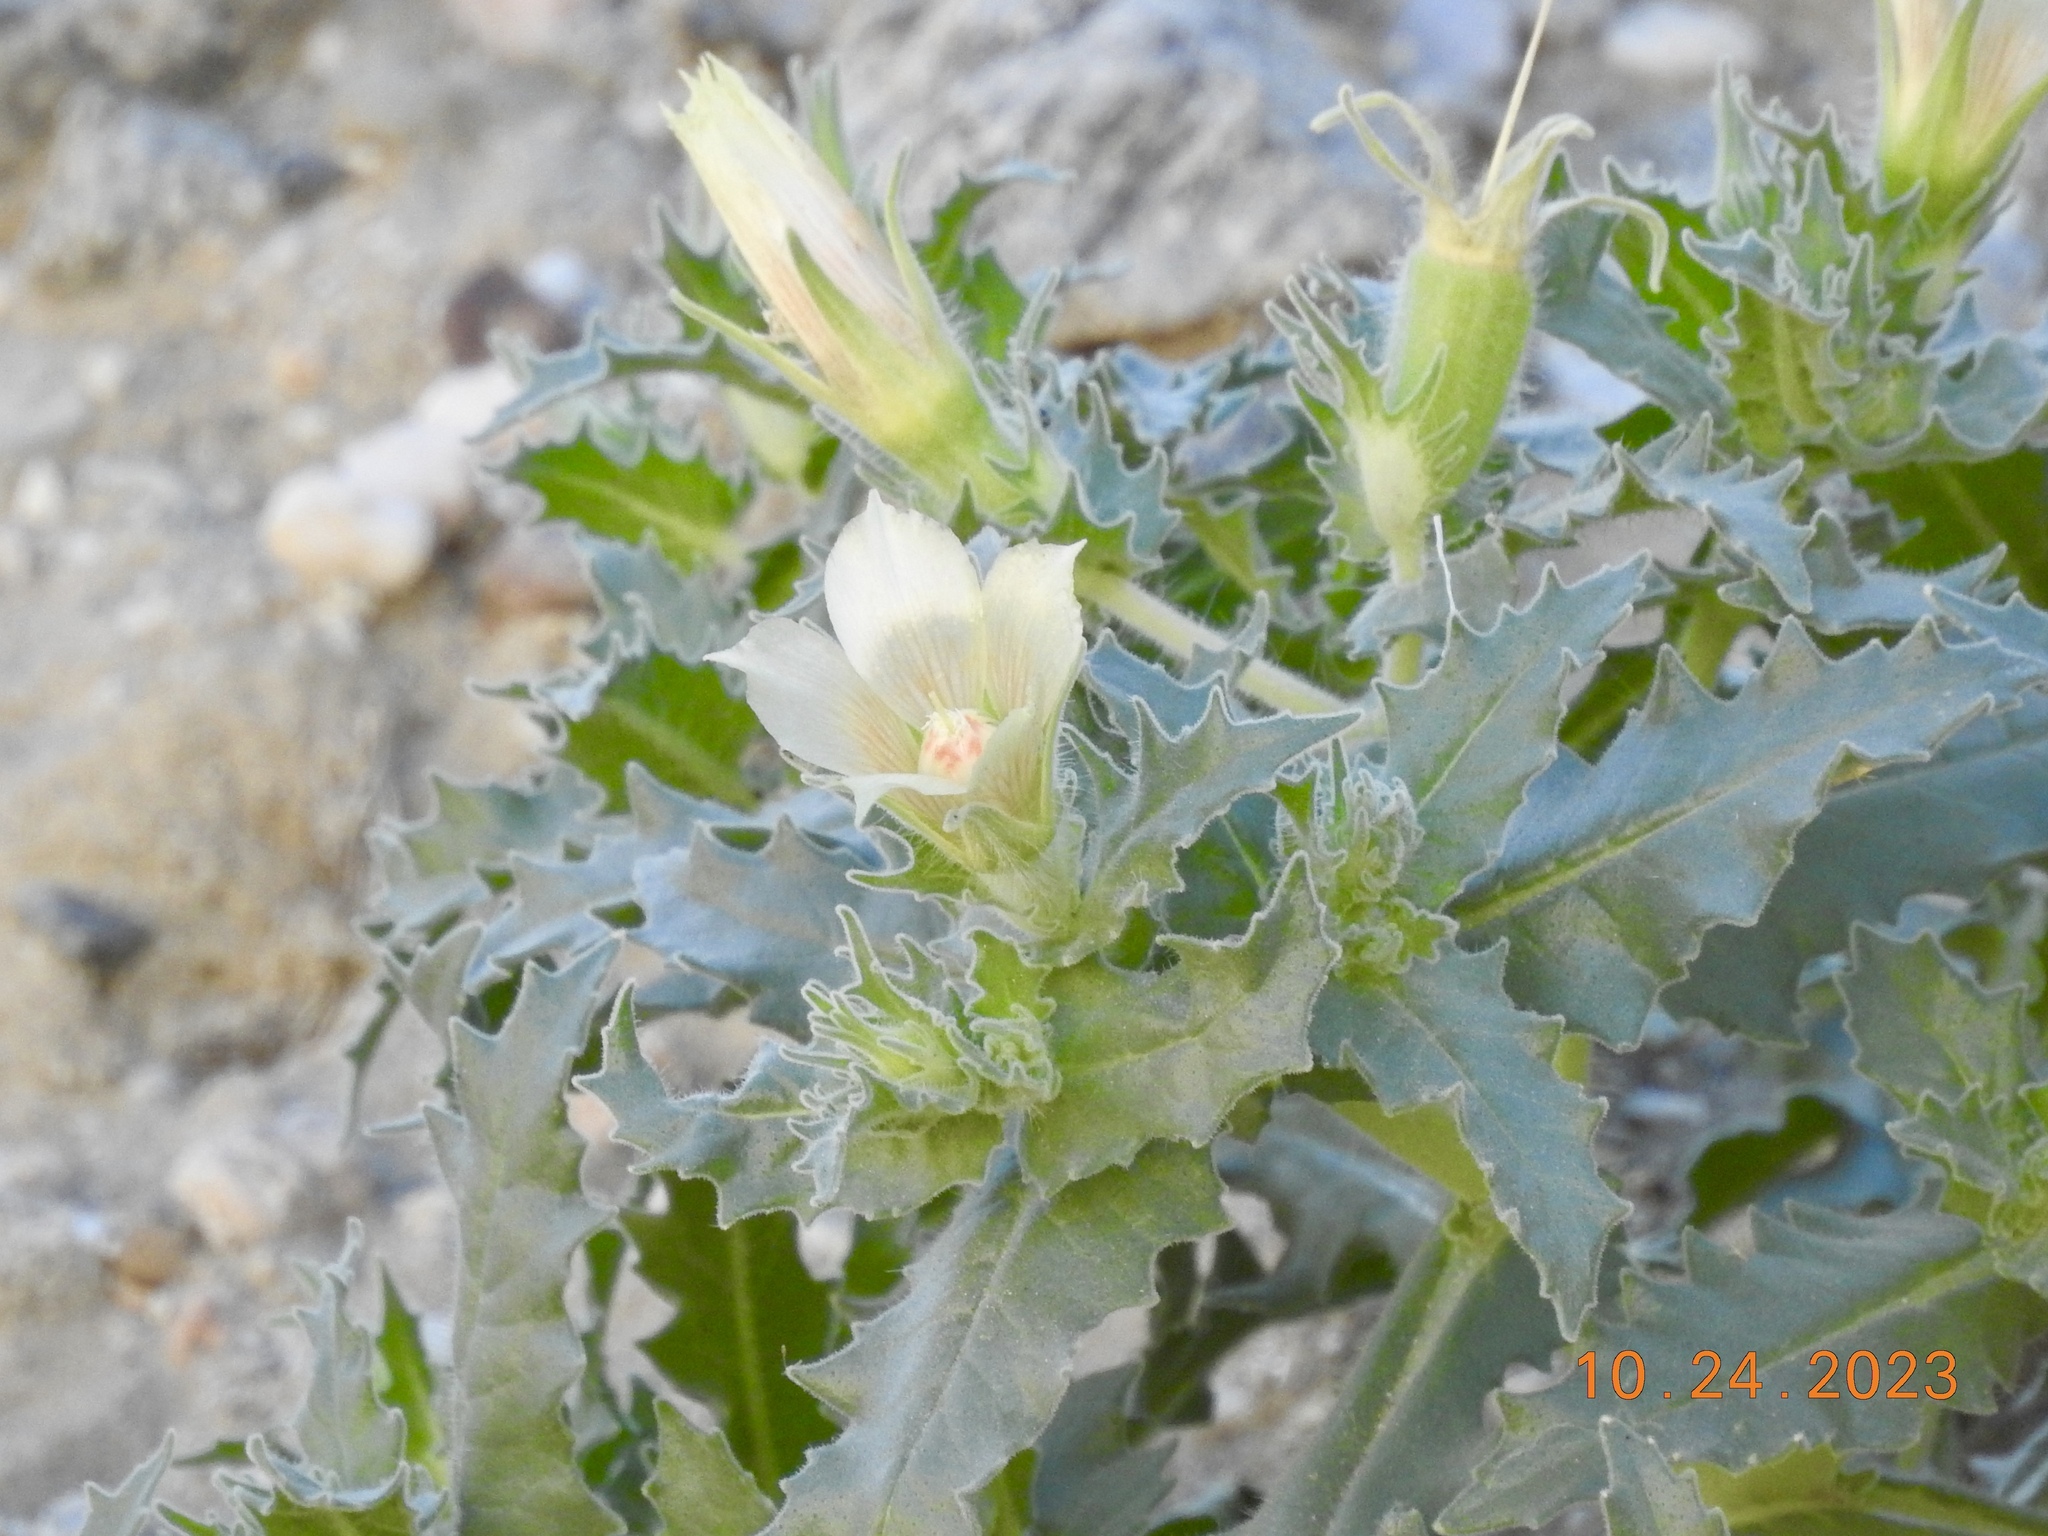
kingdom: Plantae
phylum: Tracheophyta
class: Magnoliopsida
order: Cornales
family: Loasaceae
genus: Mentzelia
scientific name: Mentzelia involucrata
